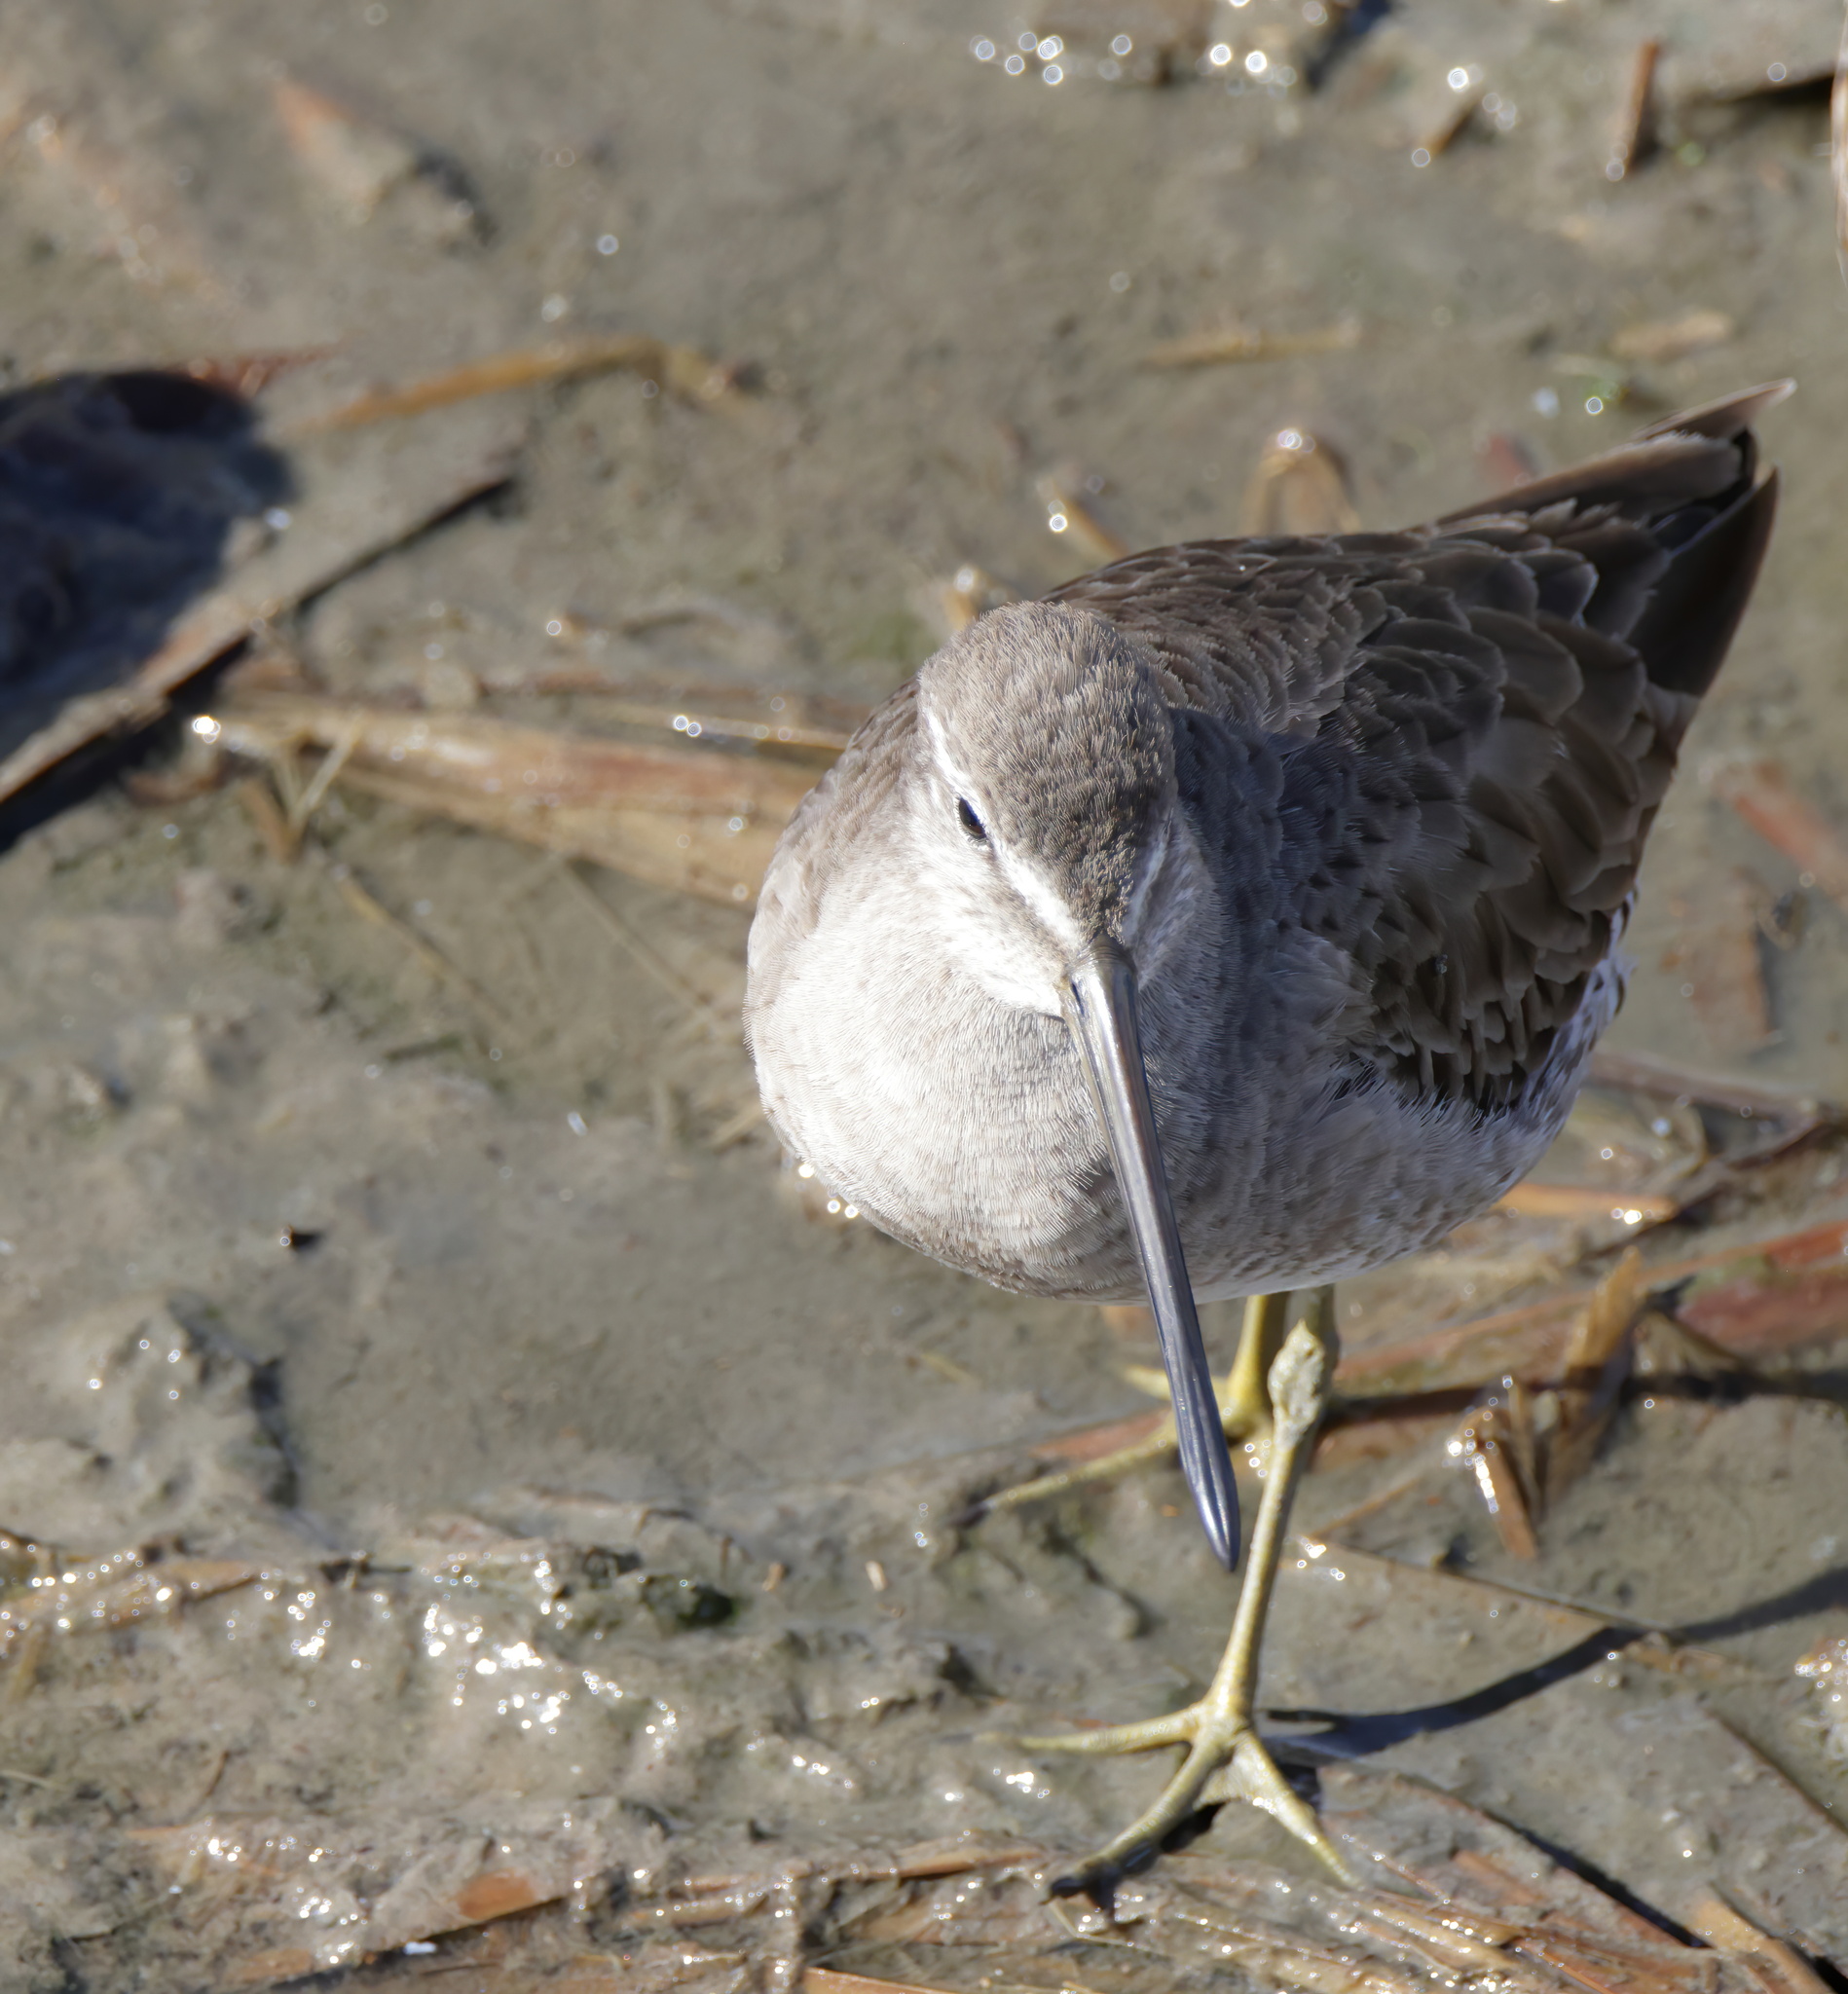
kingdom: Animalia
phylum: Chordata
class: Aves
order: Charadriiformes
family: Scolopacidae
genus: Limnodromus
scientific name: Limnodromus scolopaceus
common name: Long-billed dowitcher
